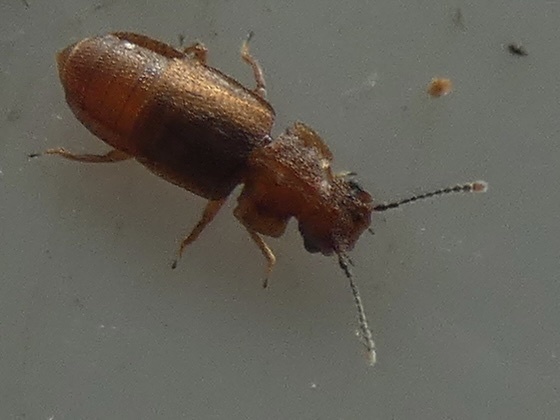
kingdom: Animalia
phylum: Arthropoda
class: Insecta
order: Coleoptera
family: Staphylinidae
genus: Metopsia
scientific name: Metopsia clypeata
